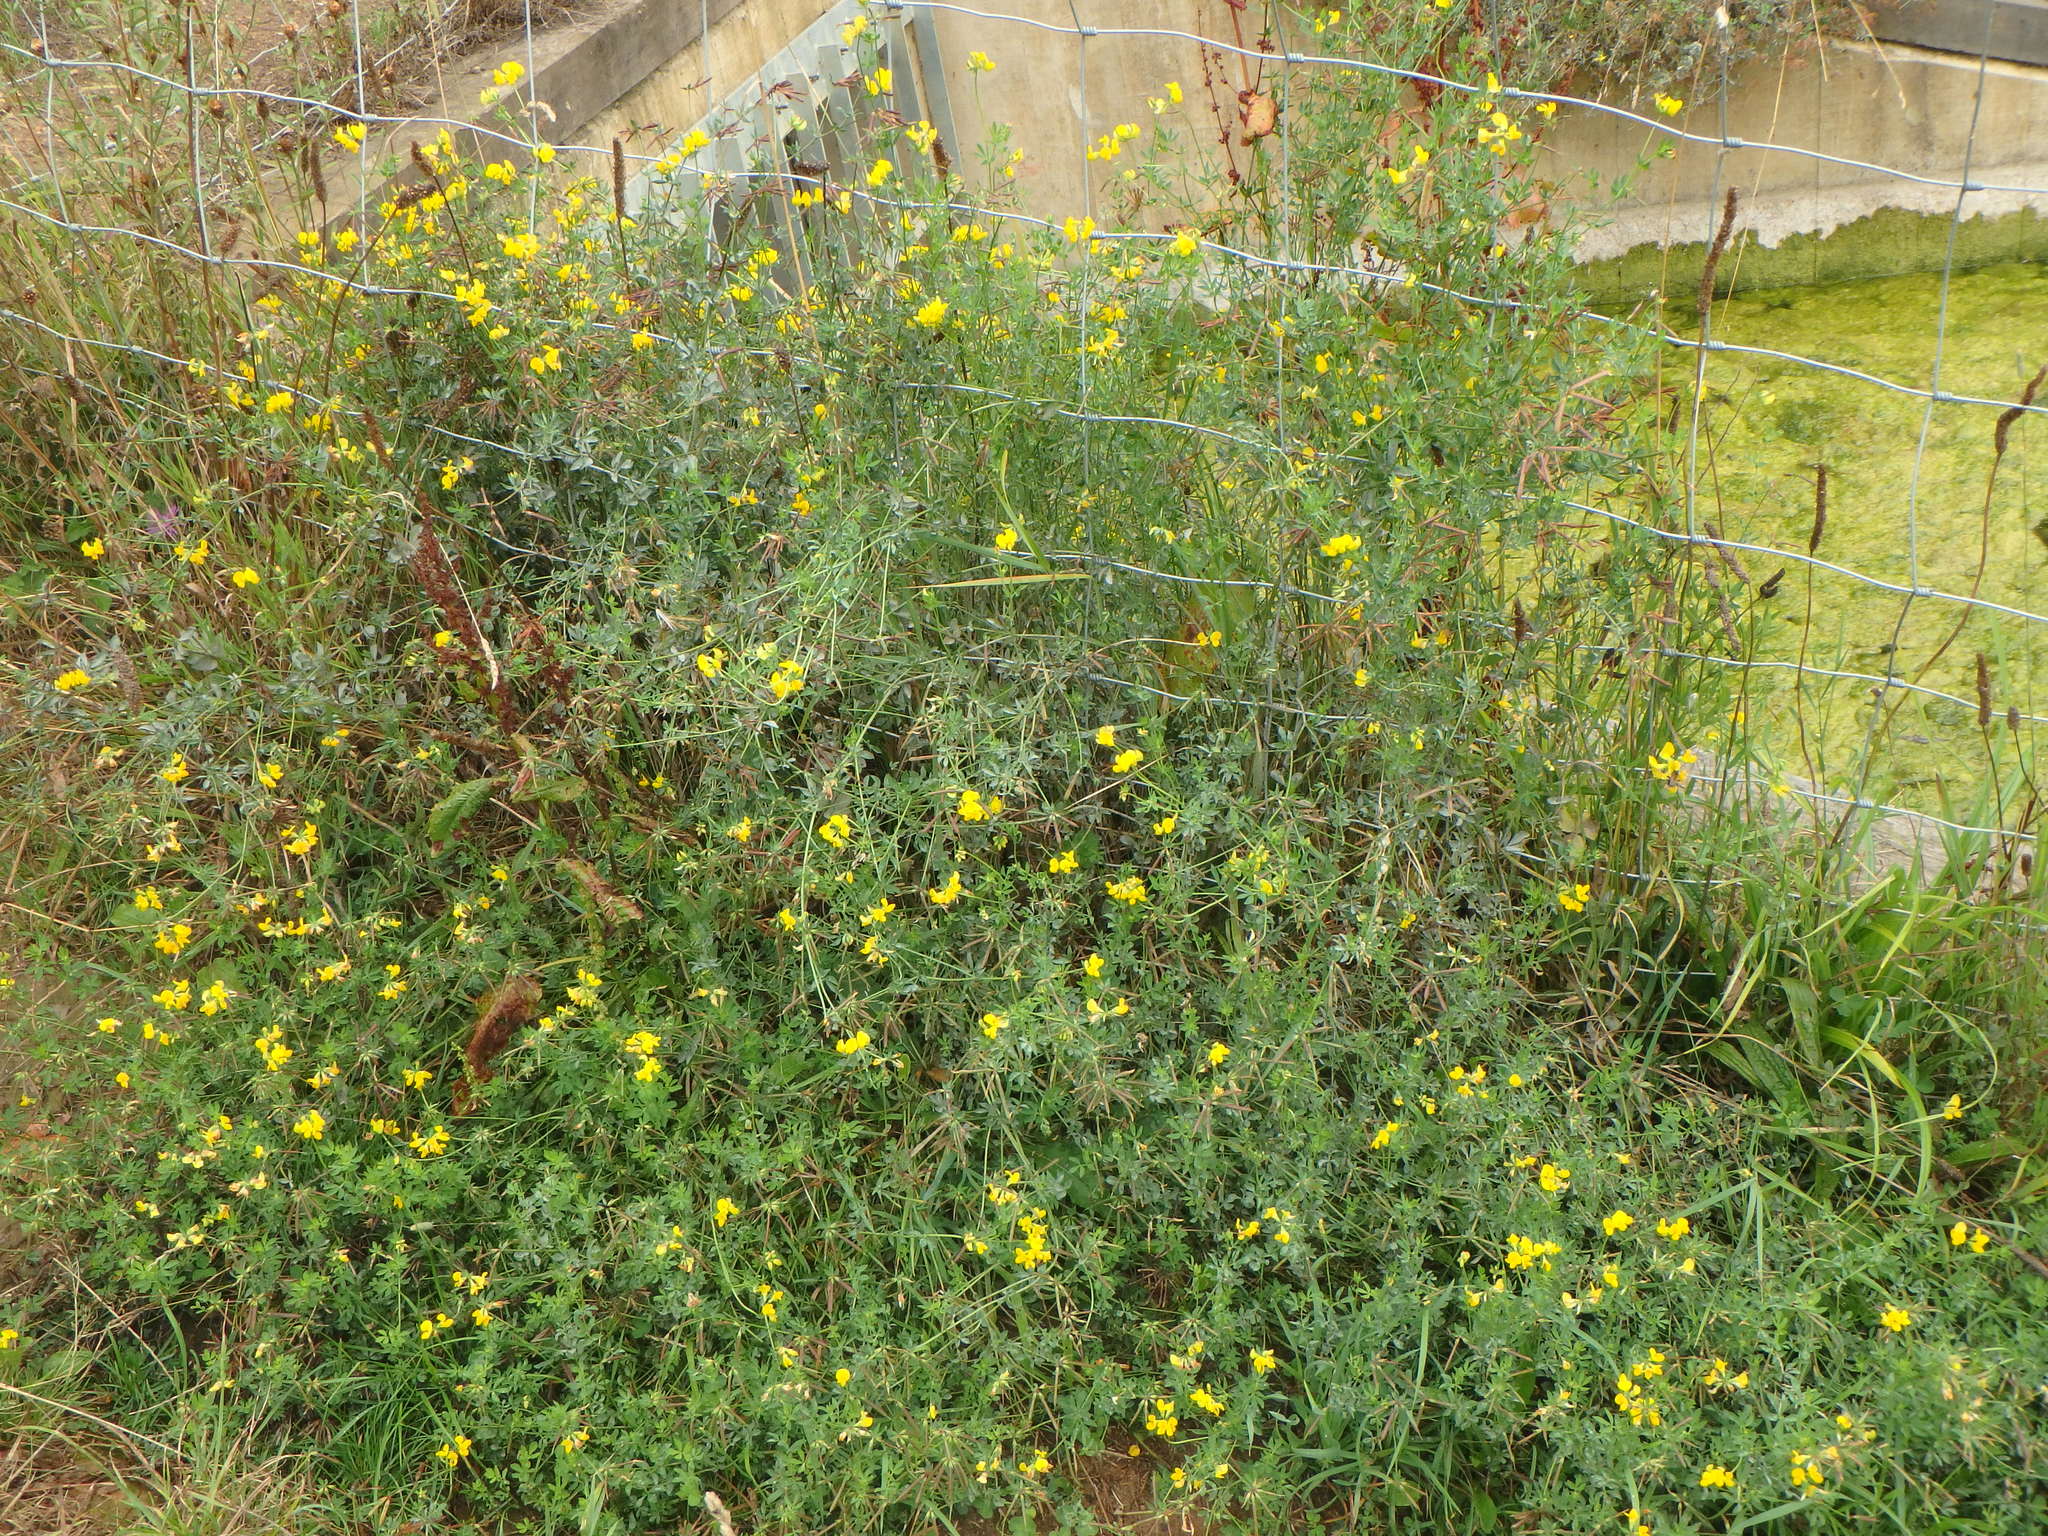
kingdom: Plantae
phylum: Tracheophyta
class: Magnoliopsida
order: Fabales
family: Fabaceae
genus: Lotus
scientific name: Lotus corniculatus
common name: Common bird's-foot-trefoil
